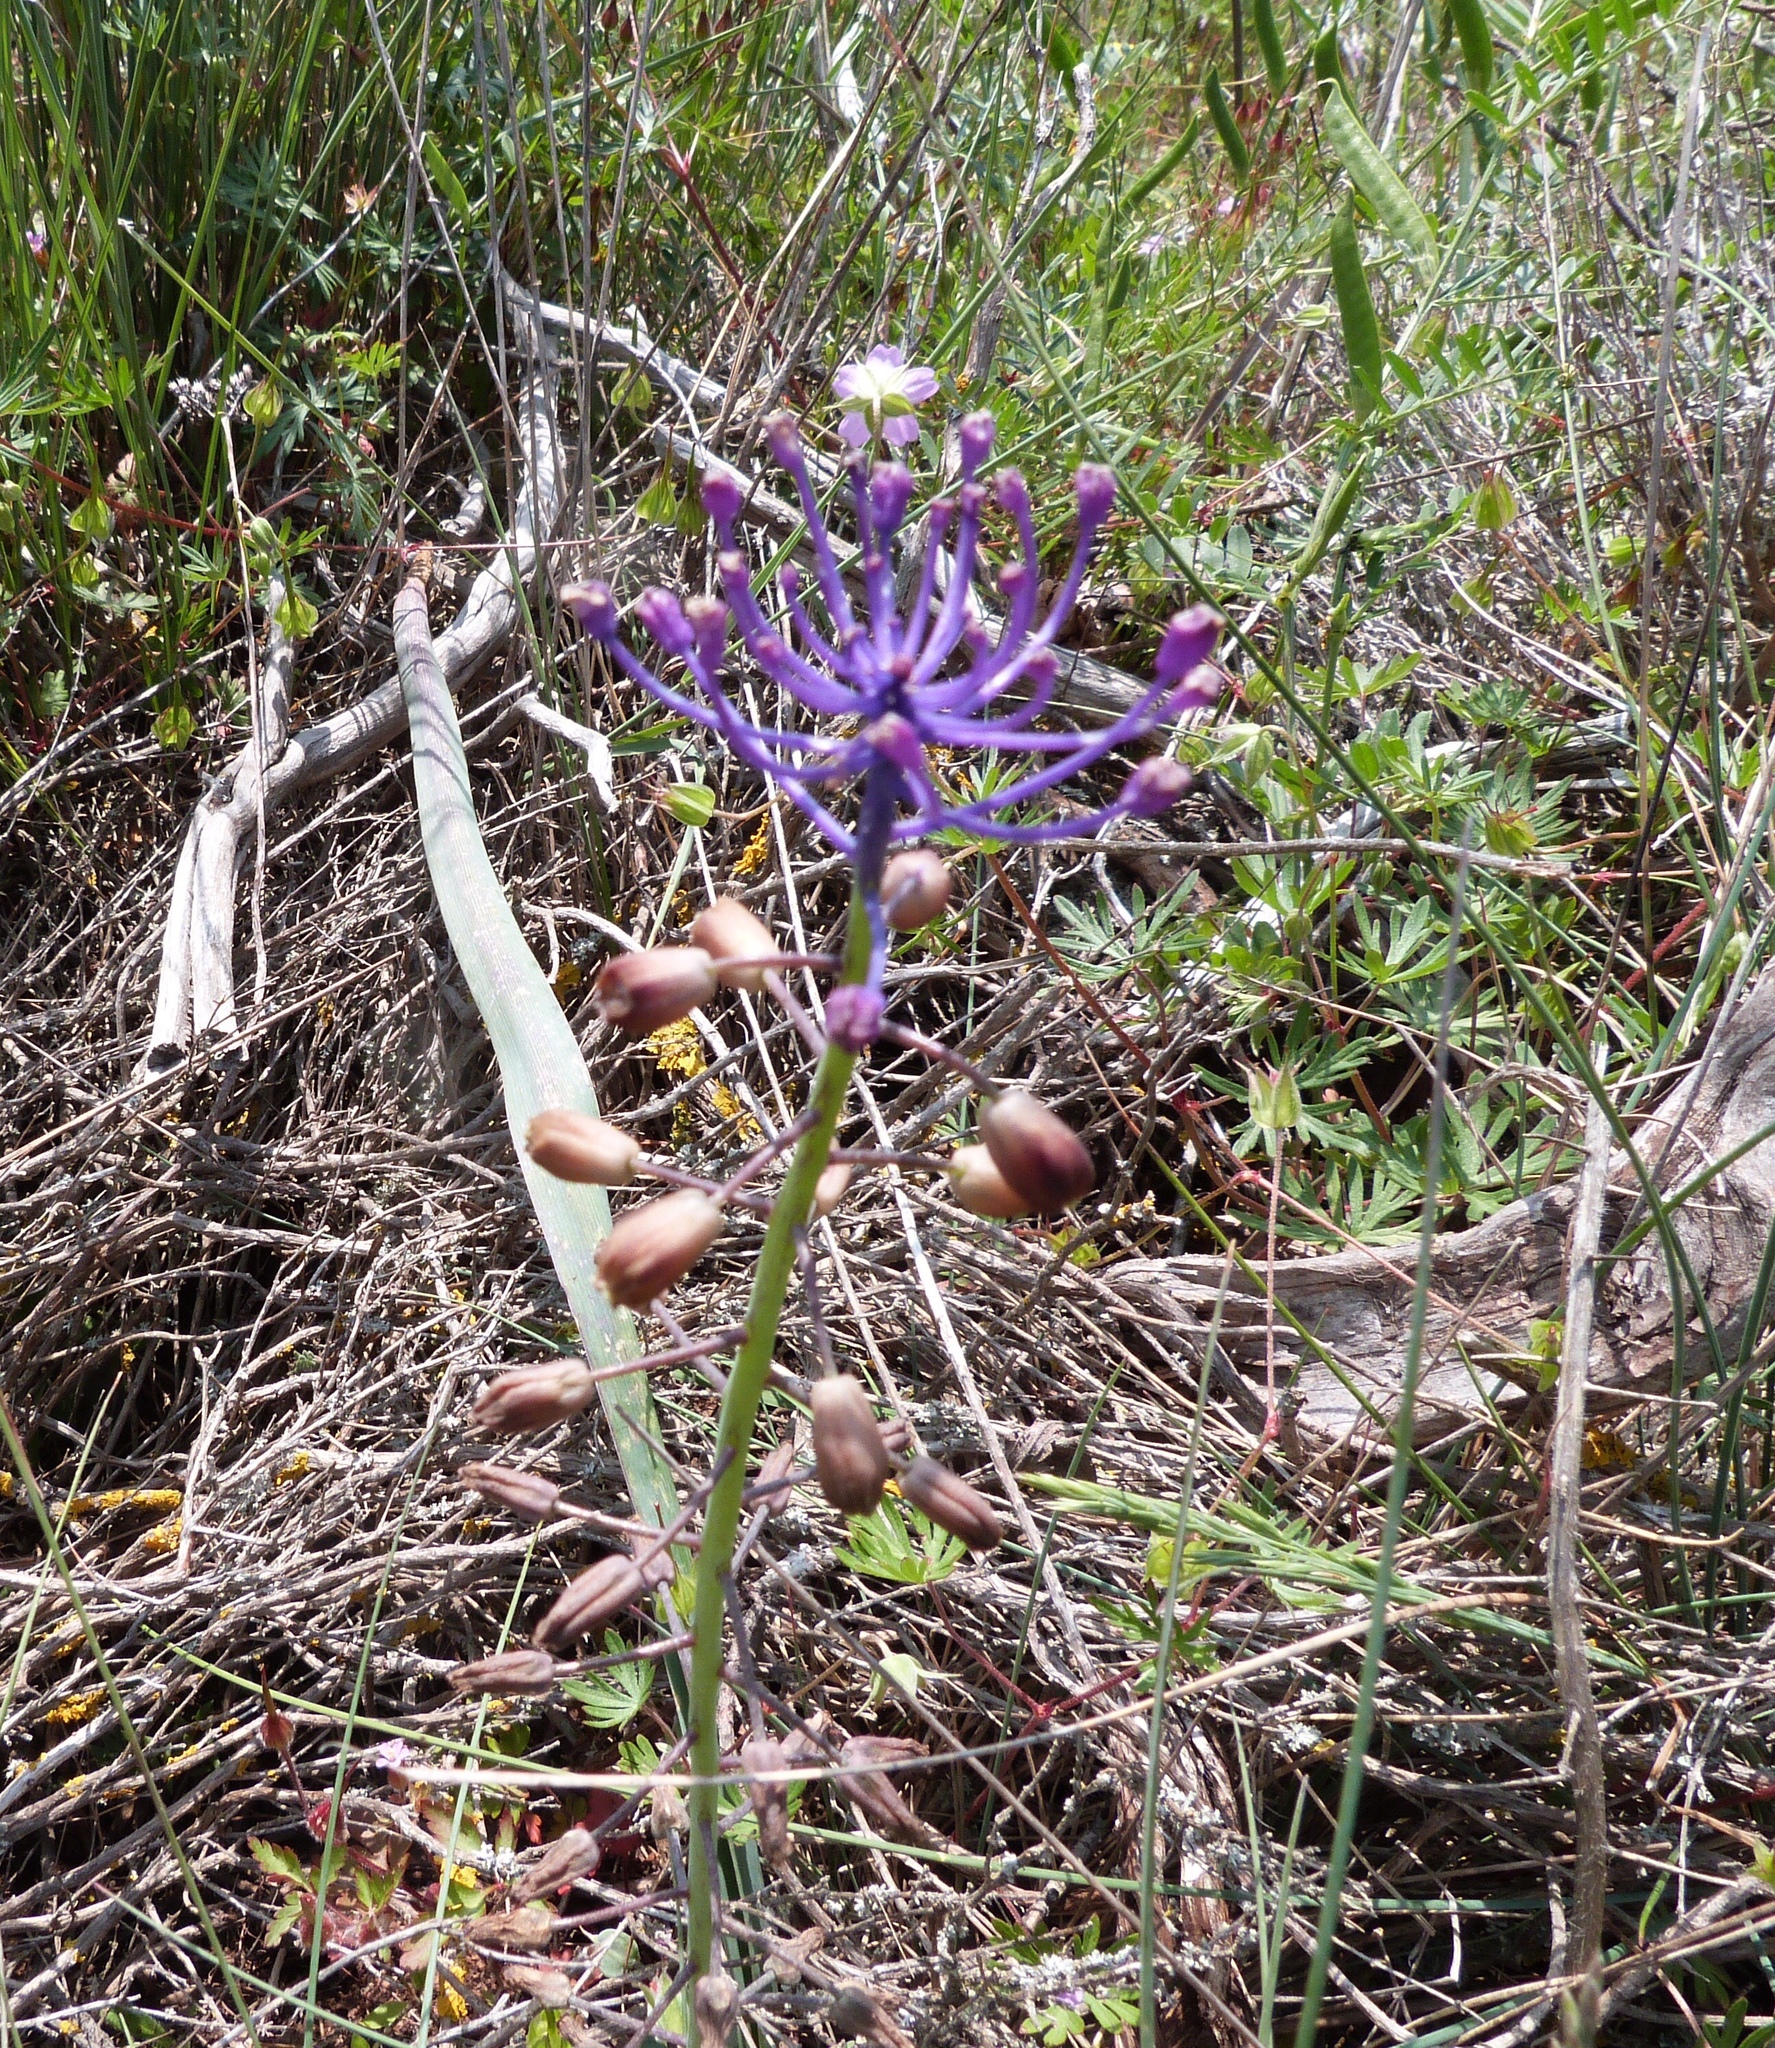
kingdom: Plantae
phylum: Tracheophyta
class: Liliopsida
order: Asparagales
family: Asparagaceae
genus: Muscari
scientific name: Muscari comosum
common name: Tassel hyacinth
